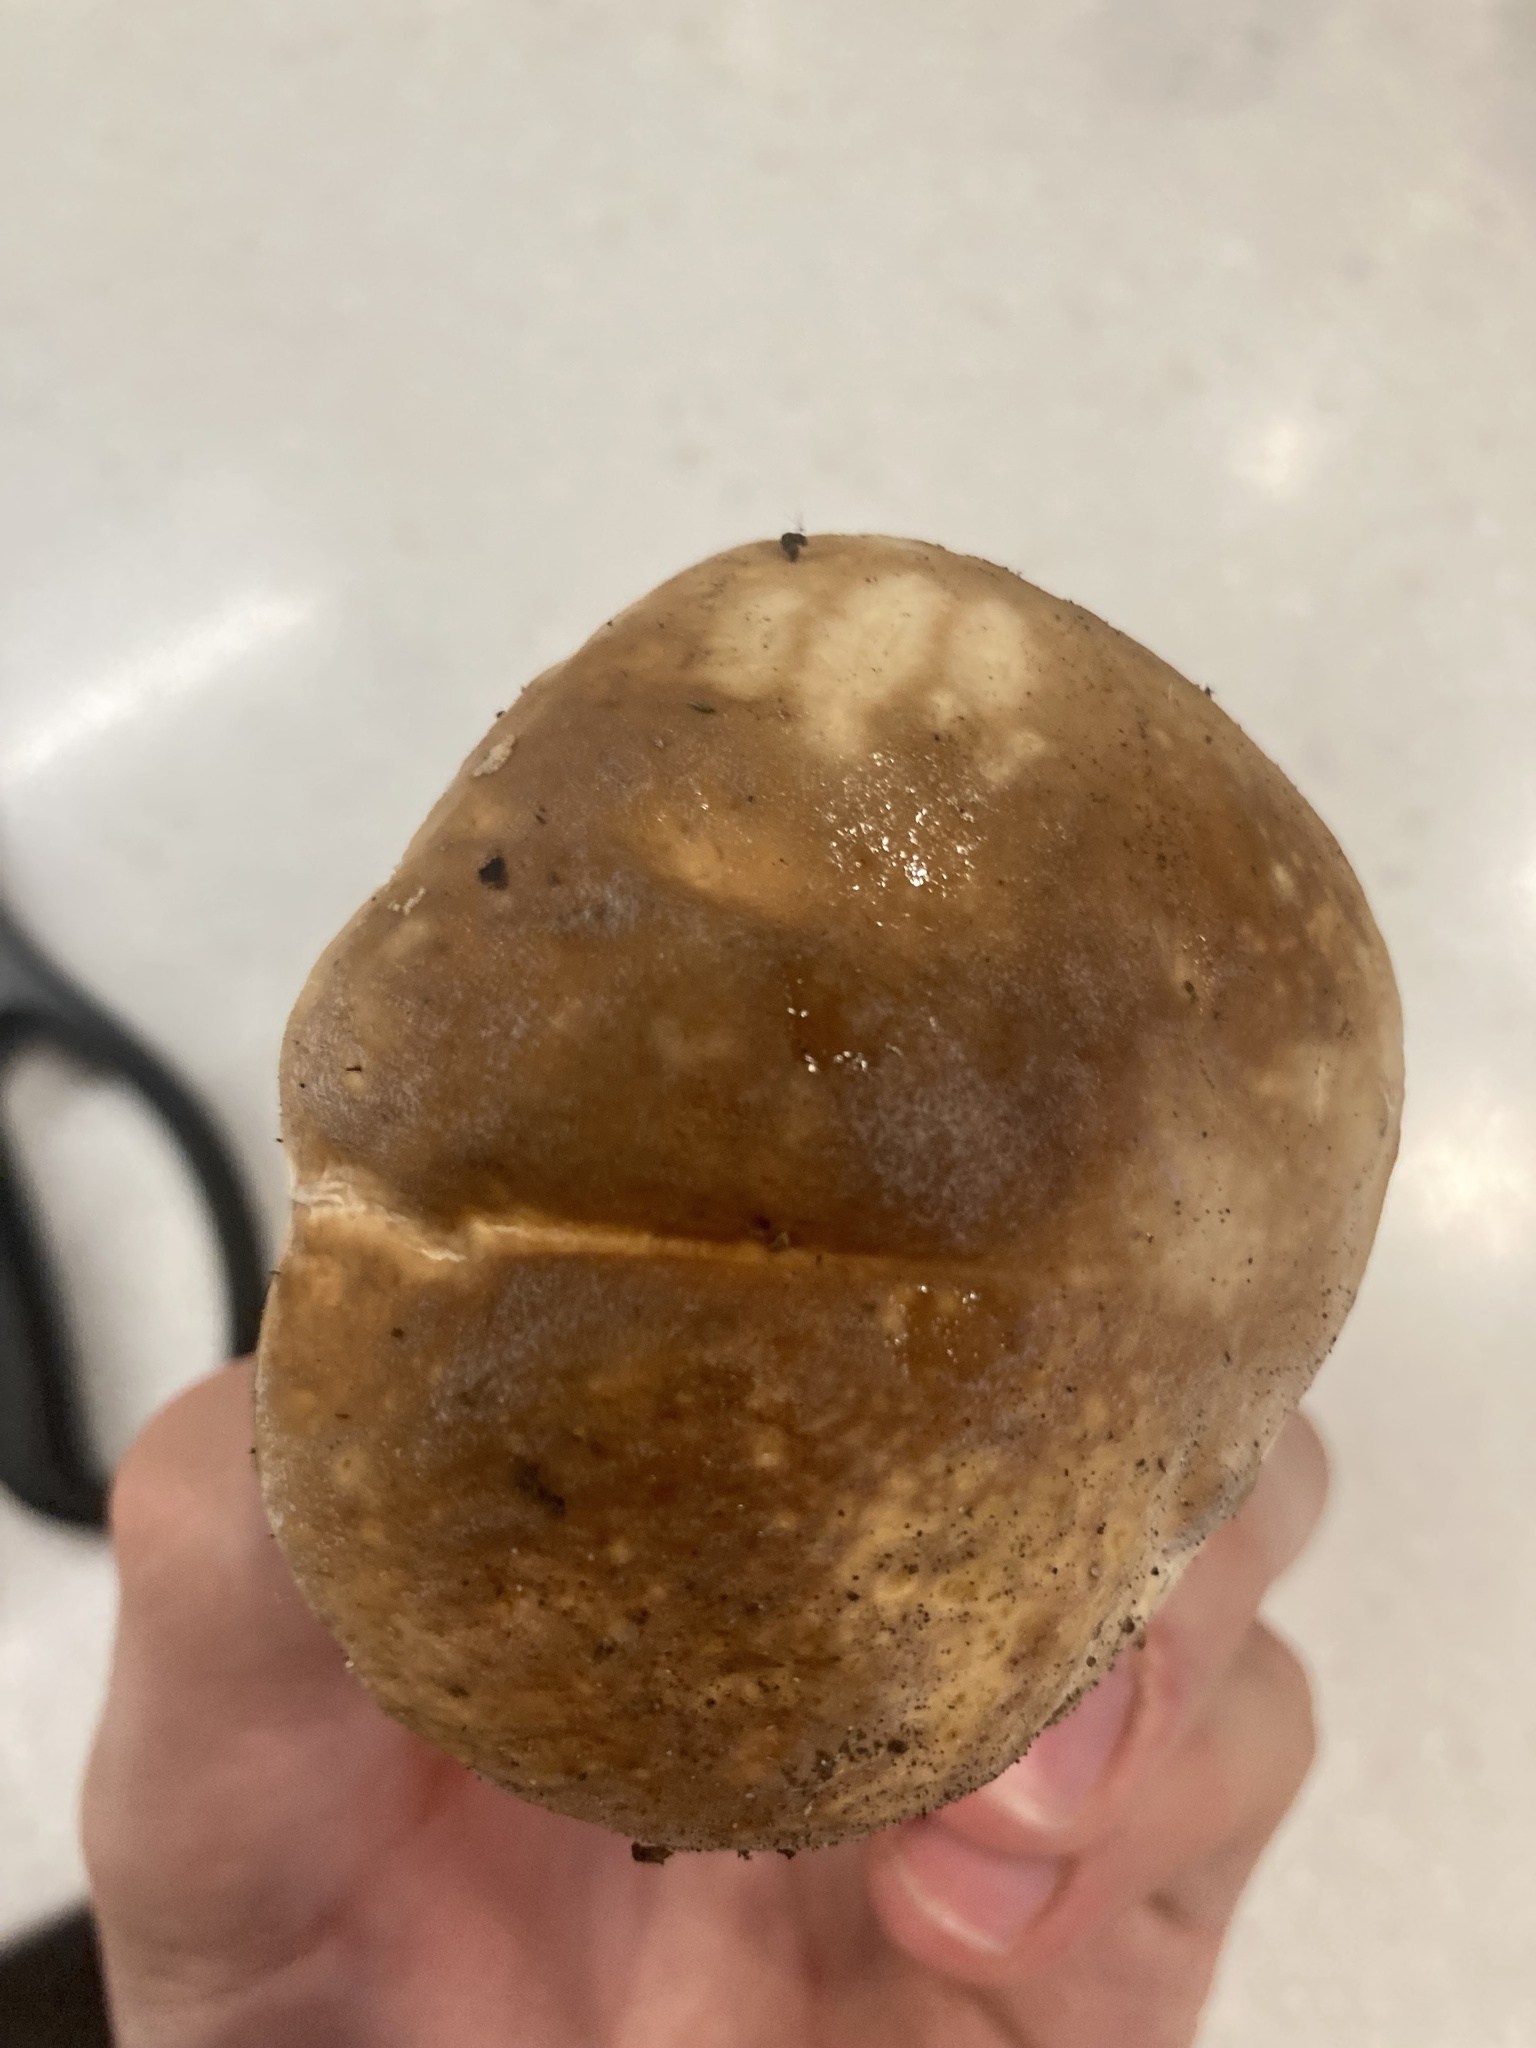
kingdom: Fungi
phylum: Basidiomycota
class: Agaricomycetes
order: Boletales
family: Boletaceae
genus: Boletus
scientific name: Boletus edulis
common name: Cep
